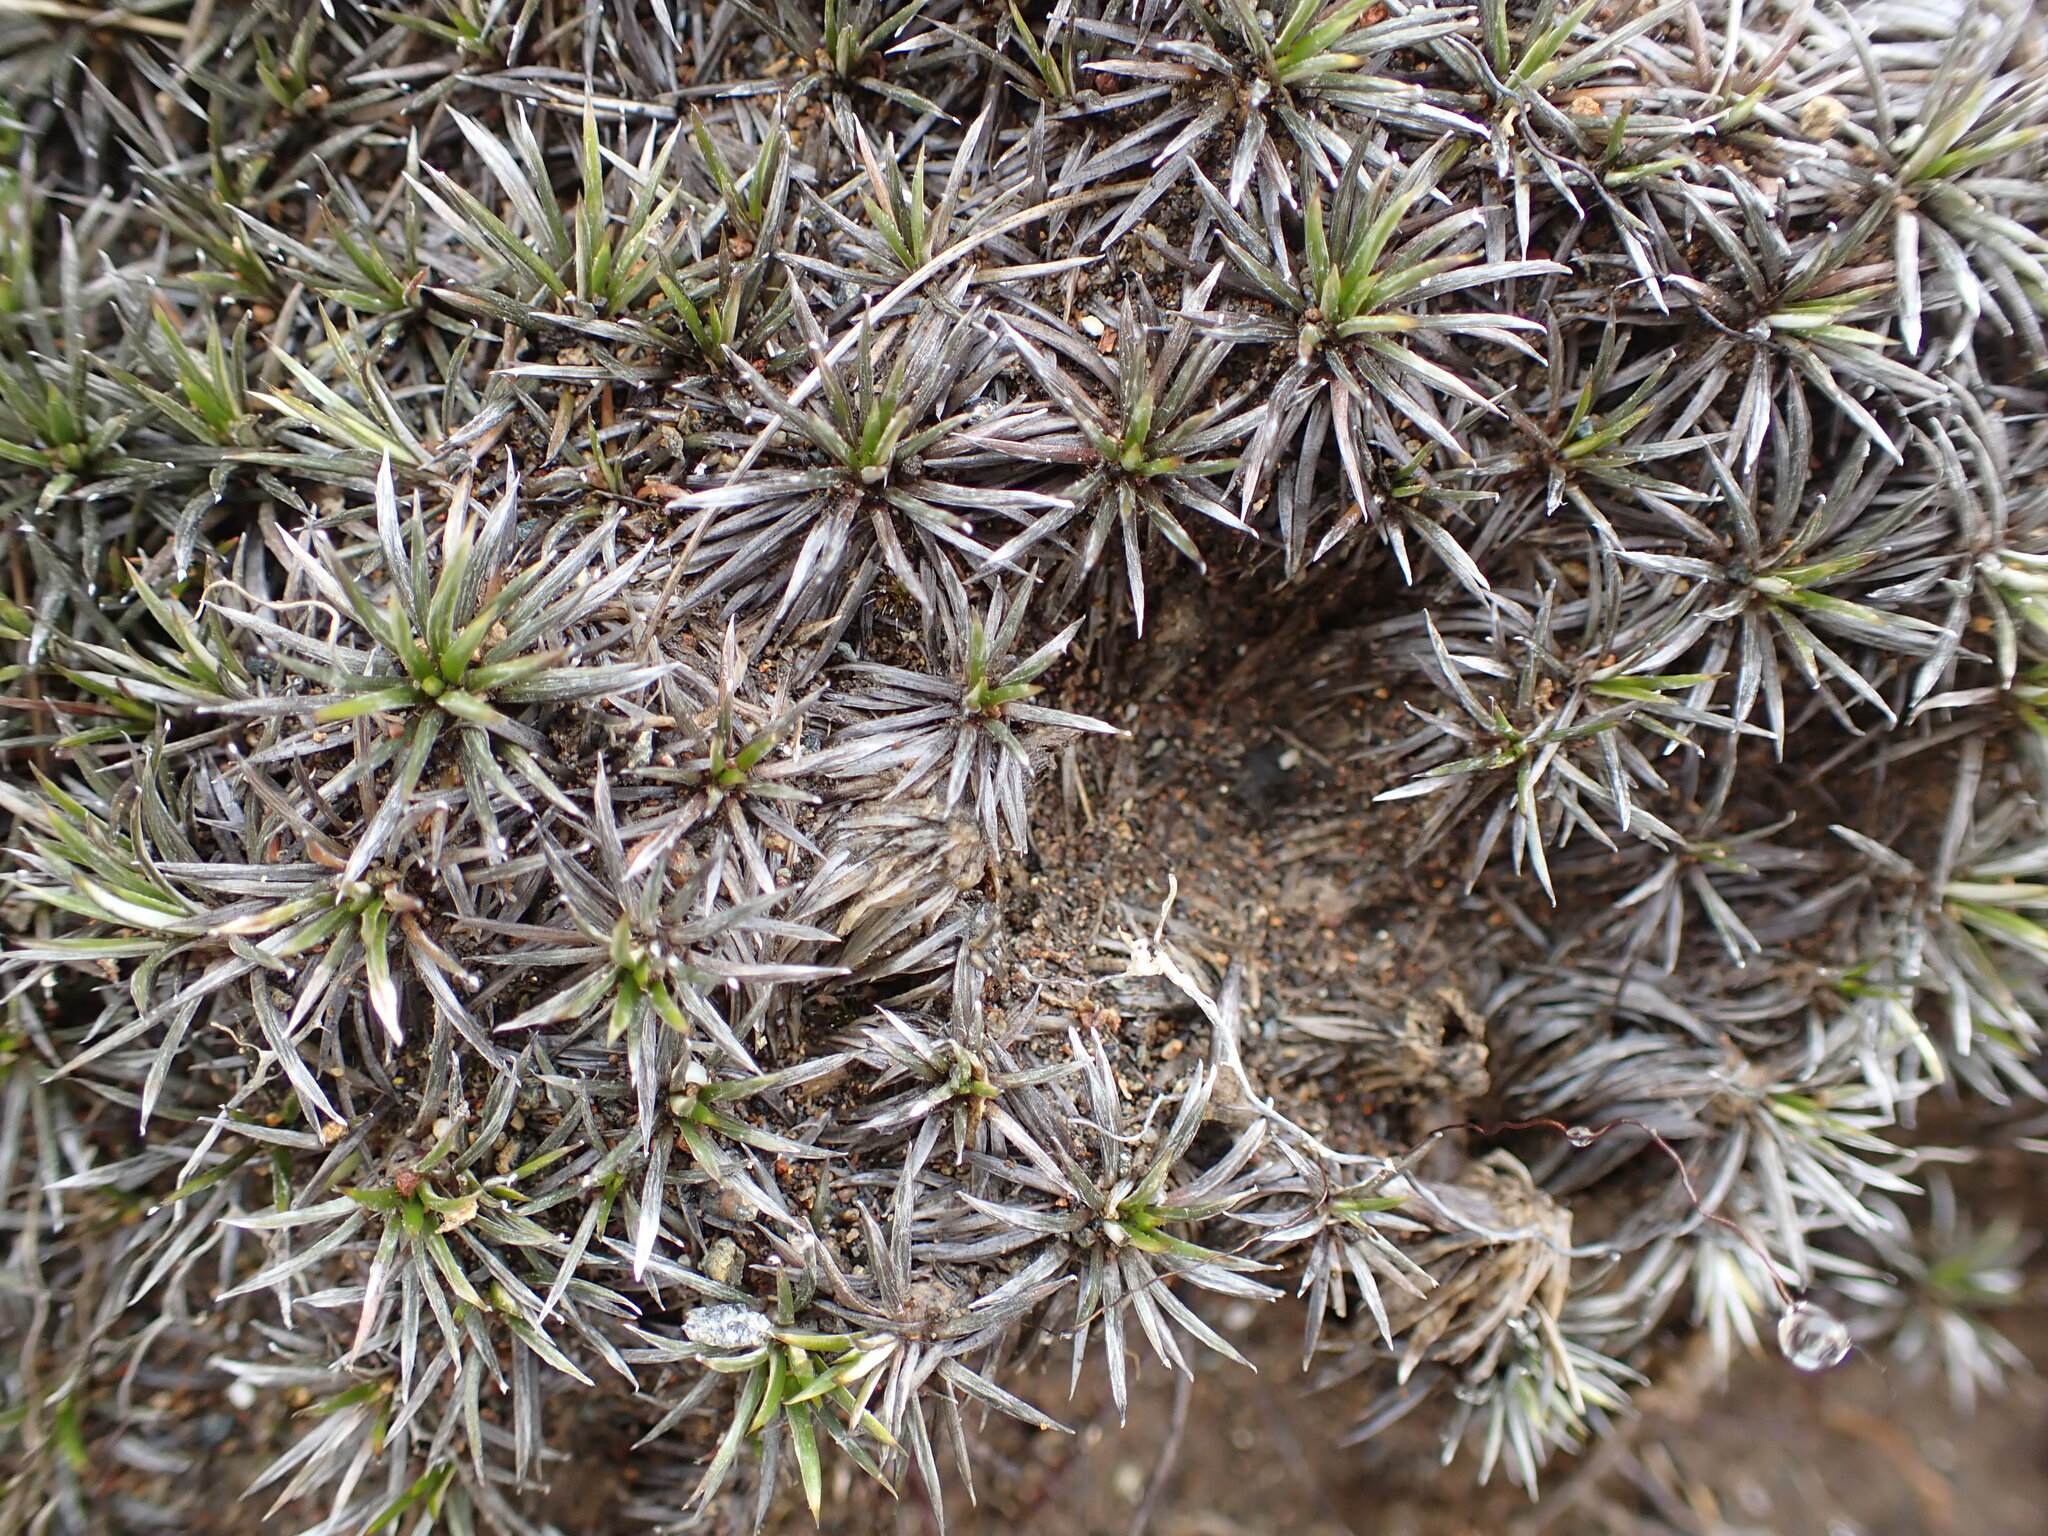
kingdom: Plantae
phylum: Tracheophyta
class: Magnoliopsida
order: Asterales
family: Asteraceae
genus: Celmisia
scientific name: Celmisia laricifolia
